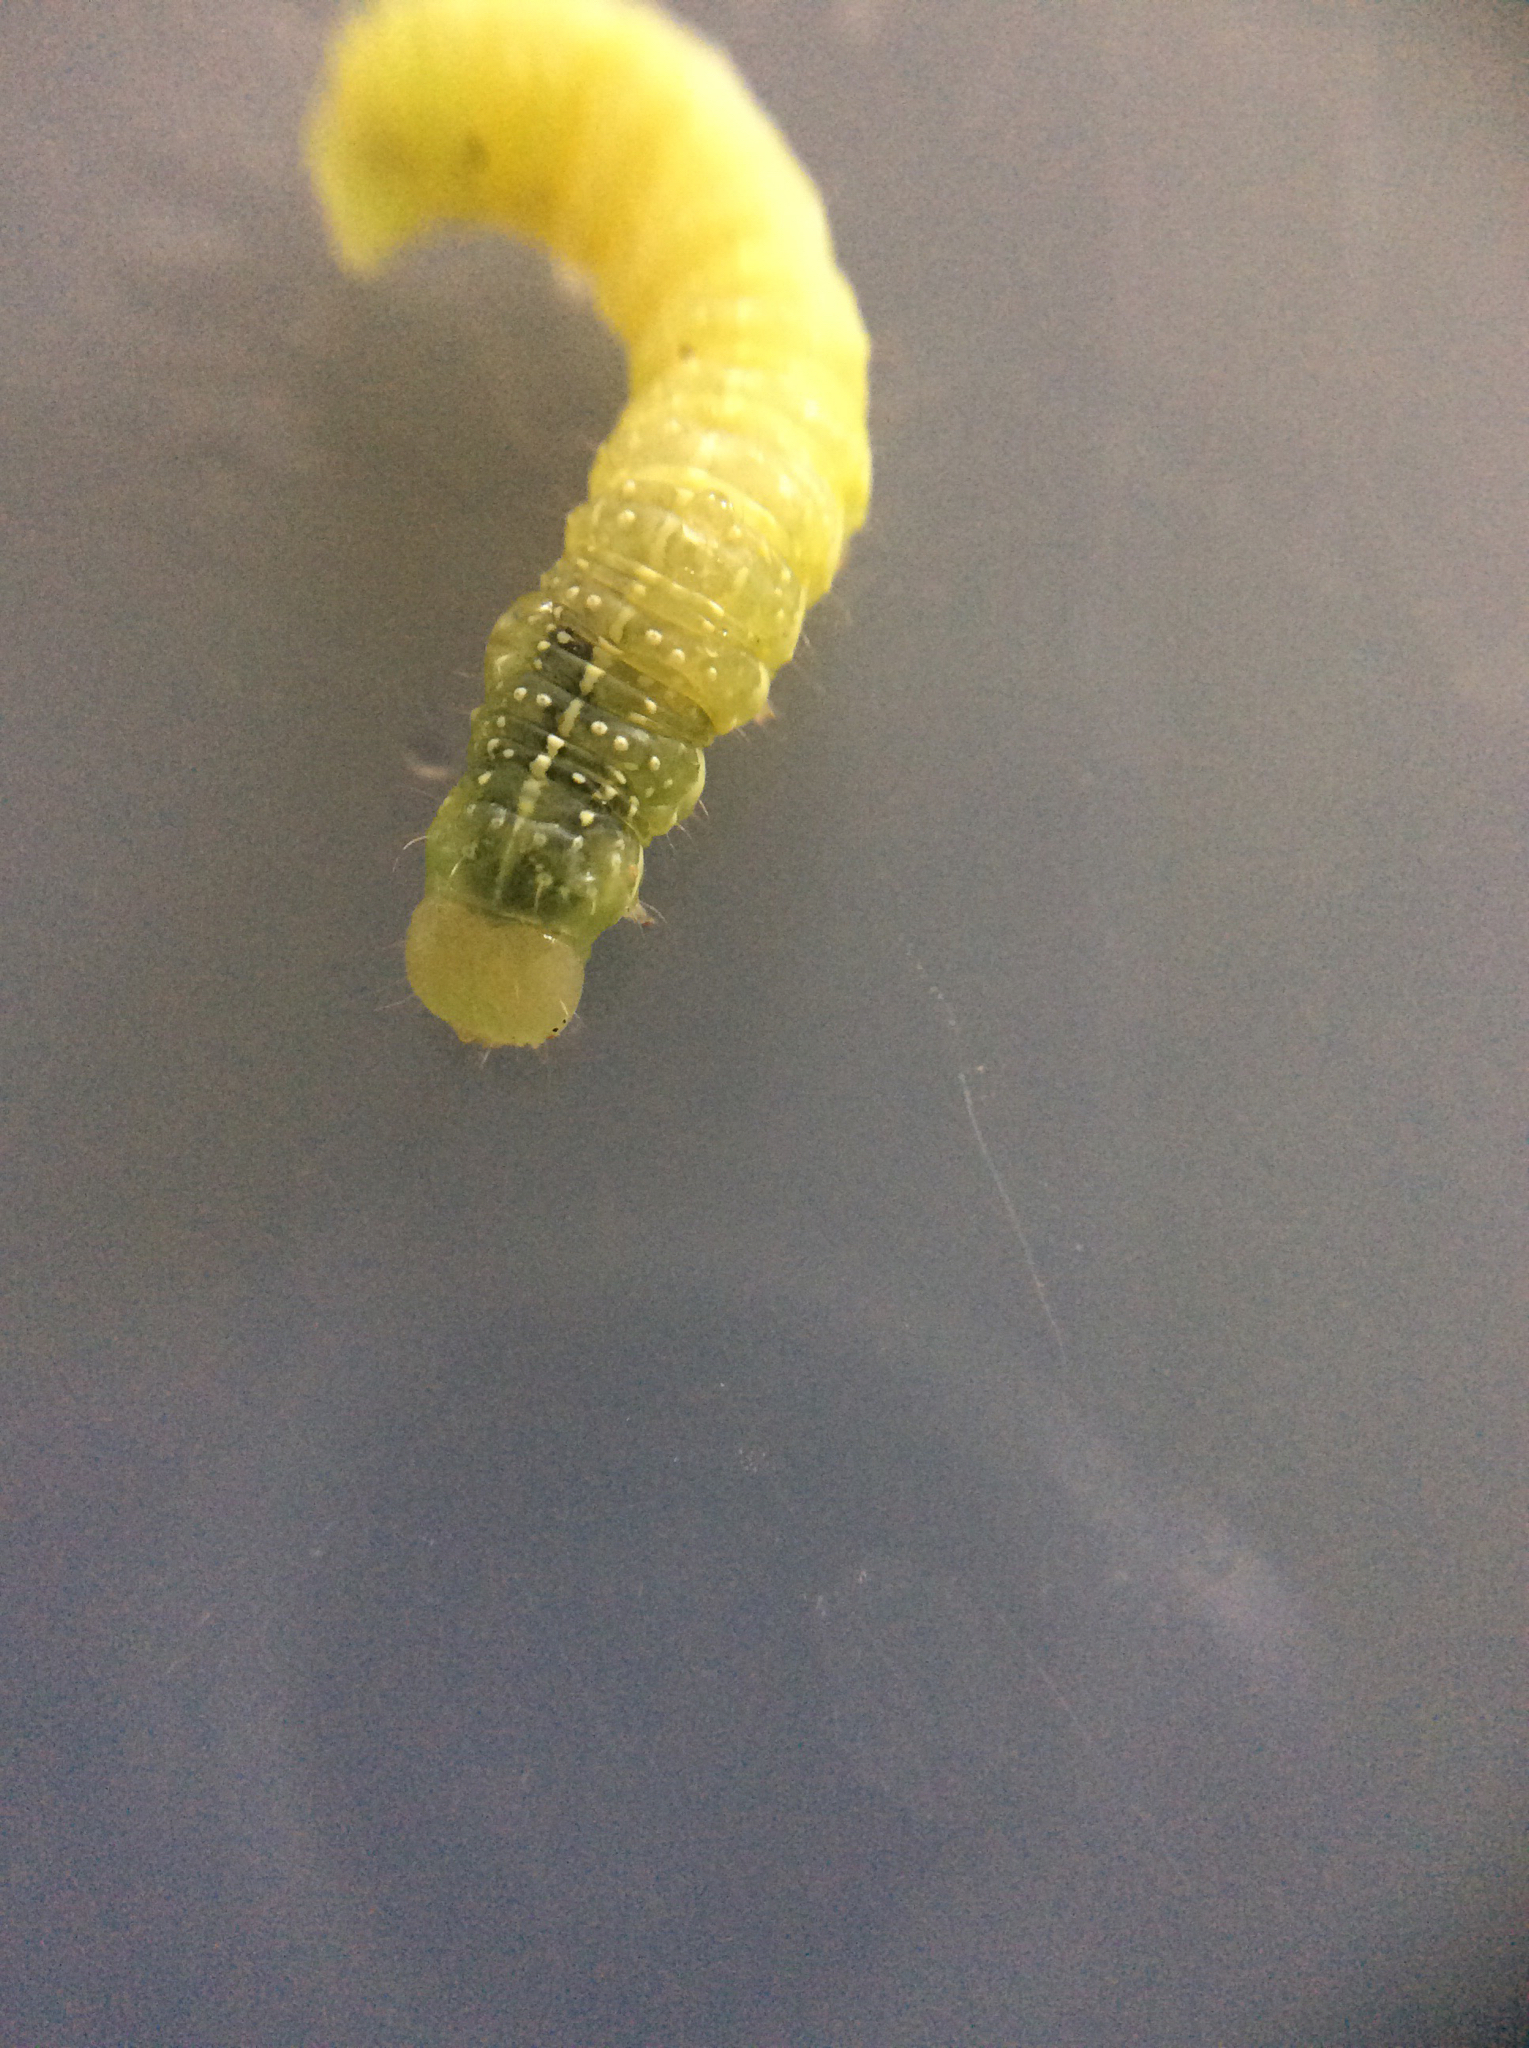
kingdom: Animalia
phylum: Arthropoda
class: Insecta
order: Lepidoptera
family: Noctuidae
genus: Lithophane
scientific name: Lithophane antennata
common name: Ashen pinion
